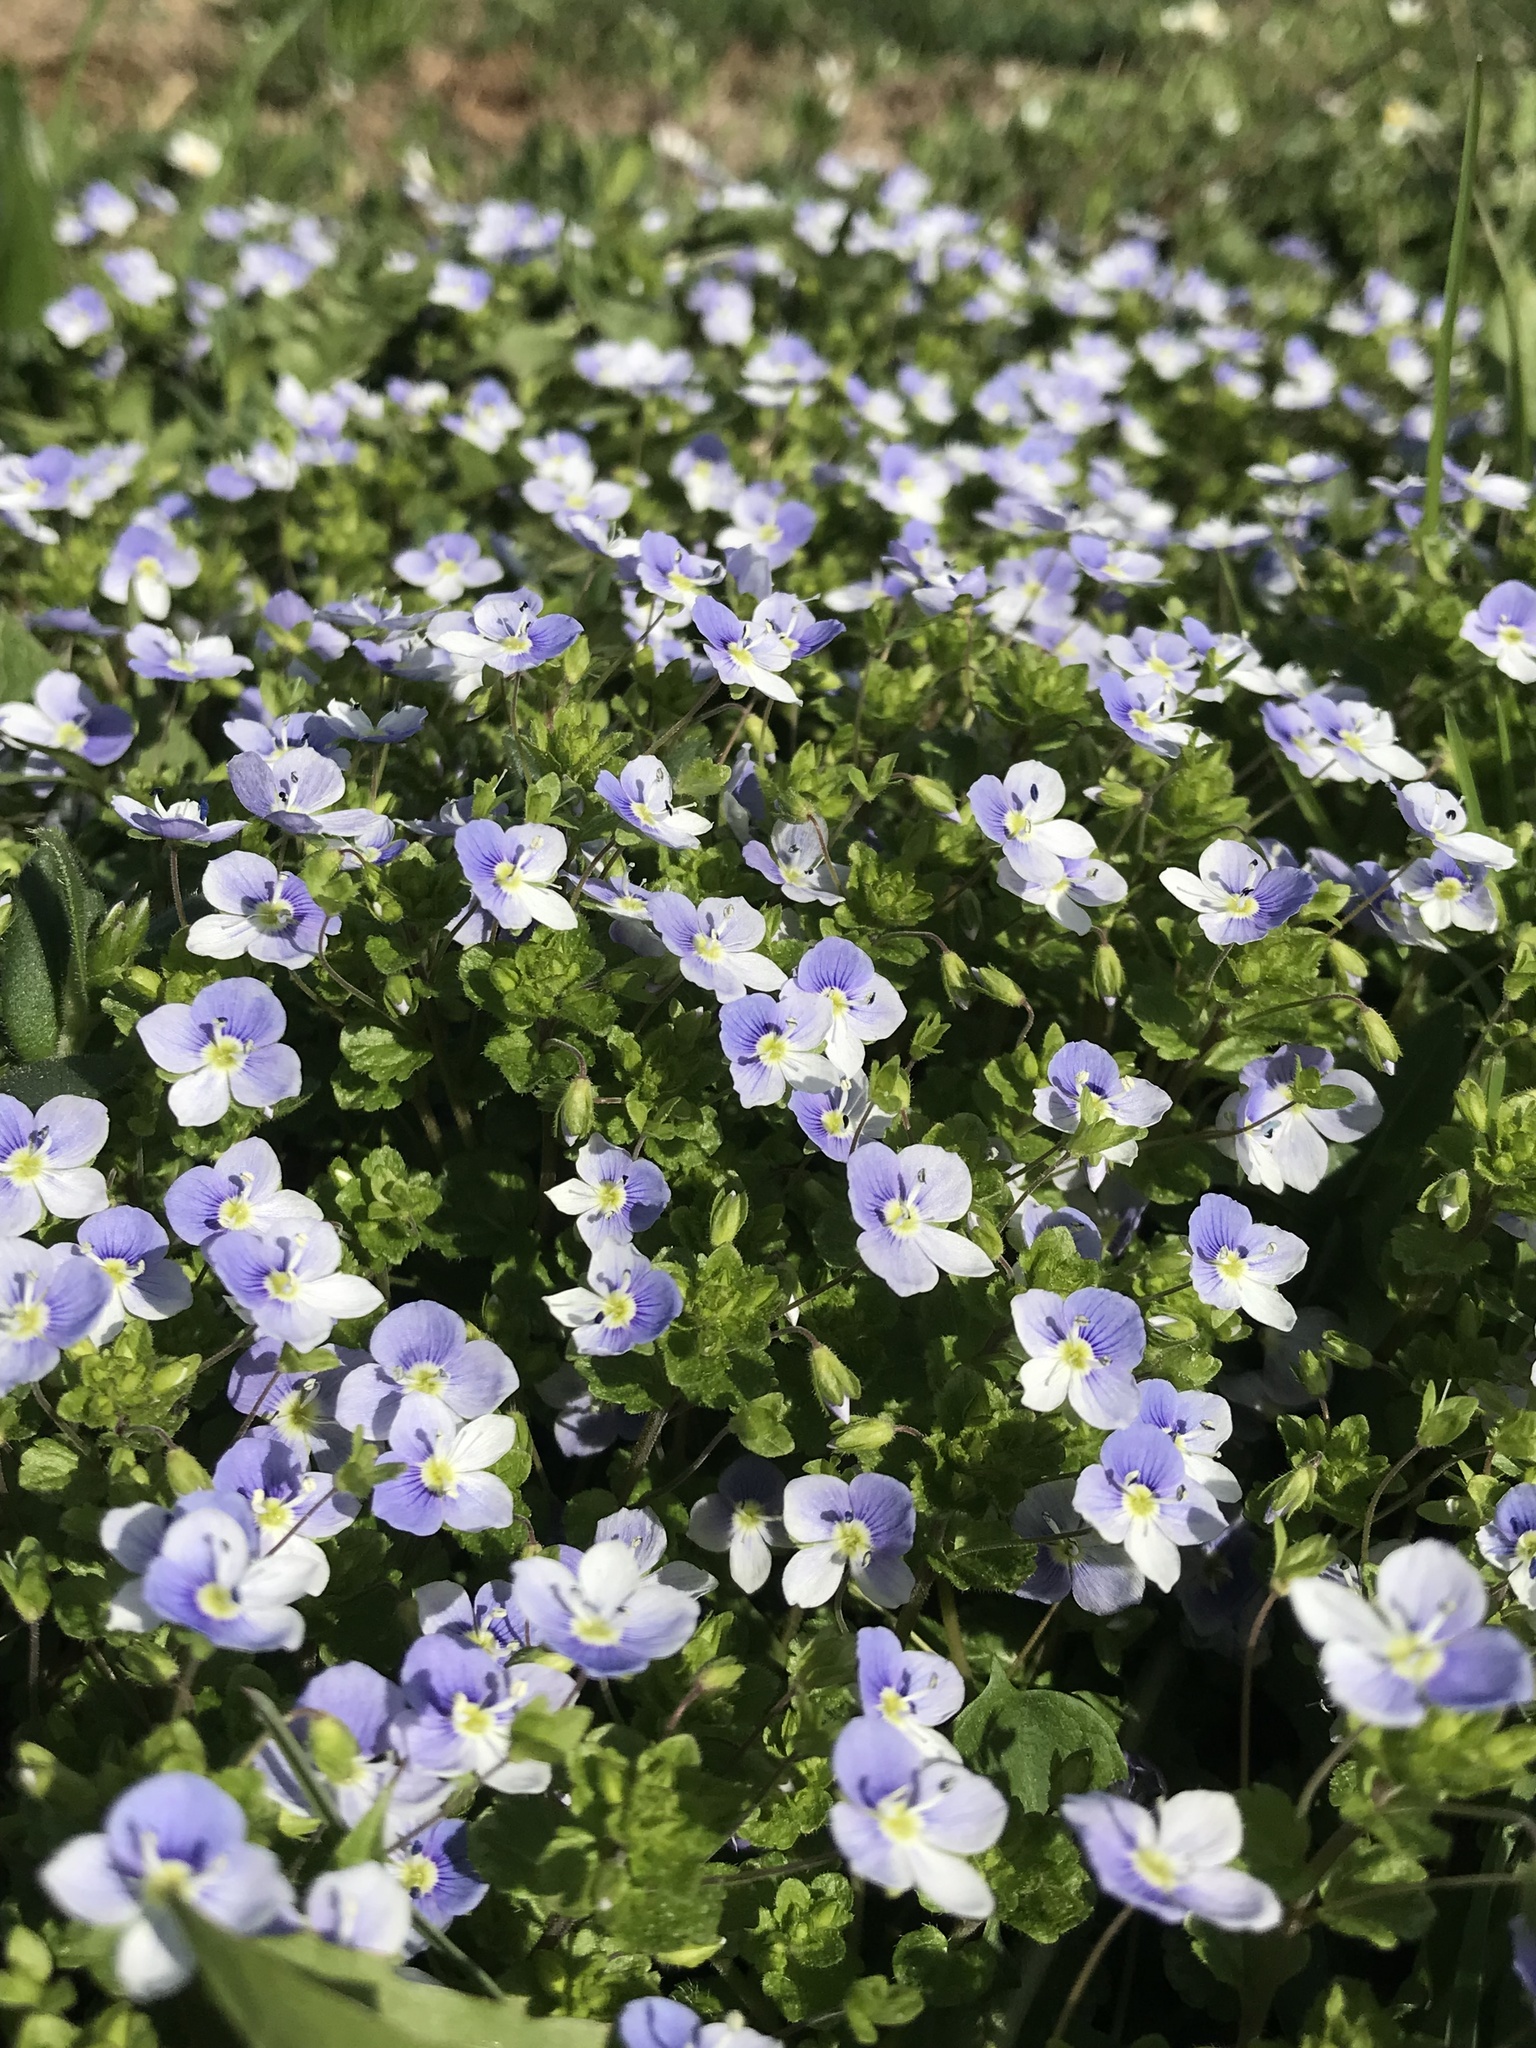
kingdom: Plantae
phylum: Tracheophyta
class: Magnoliopsida
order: Lamiales
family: Plantaginaceae
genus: Veronica
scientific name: Veronica filiformis
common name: Slender speedwell
